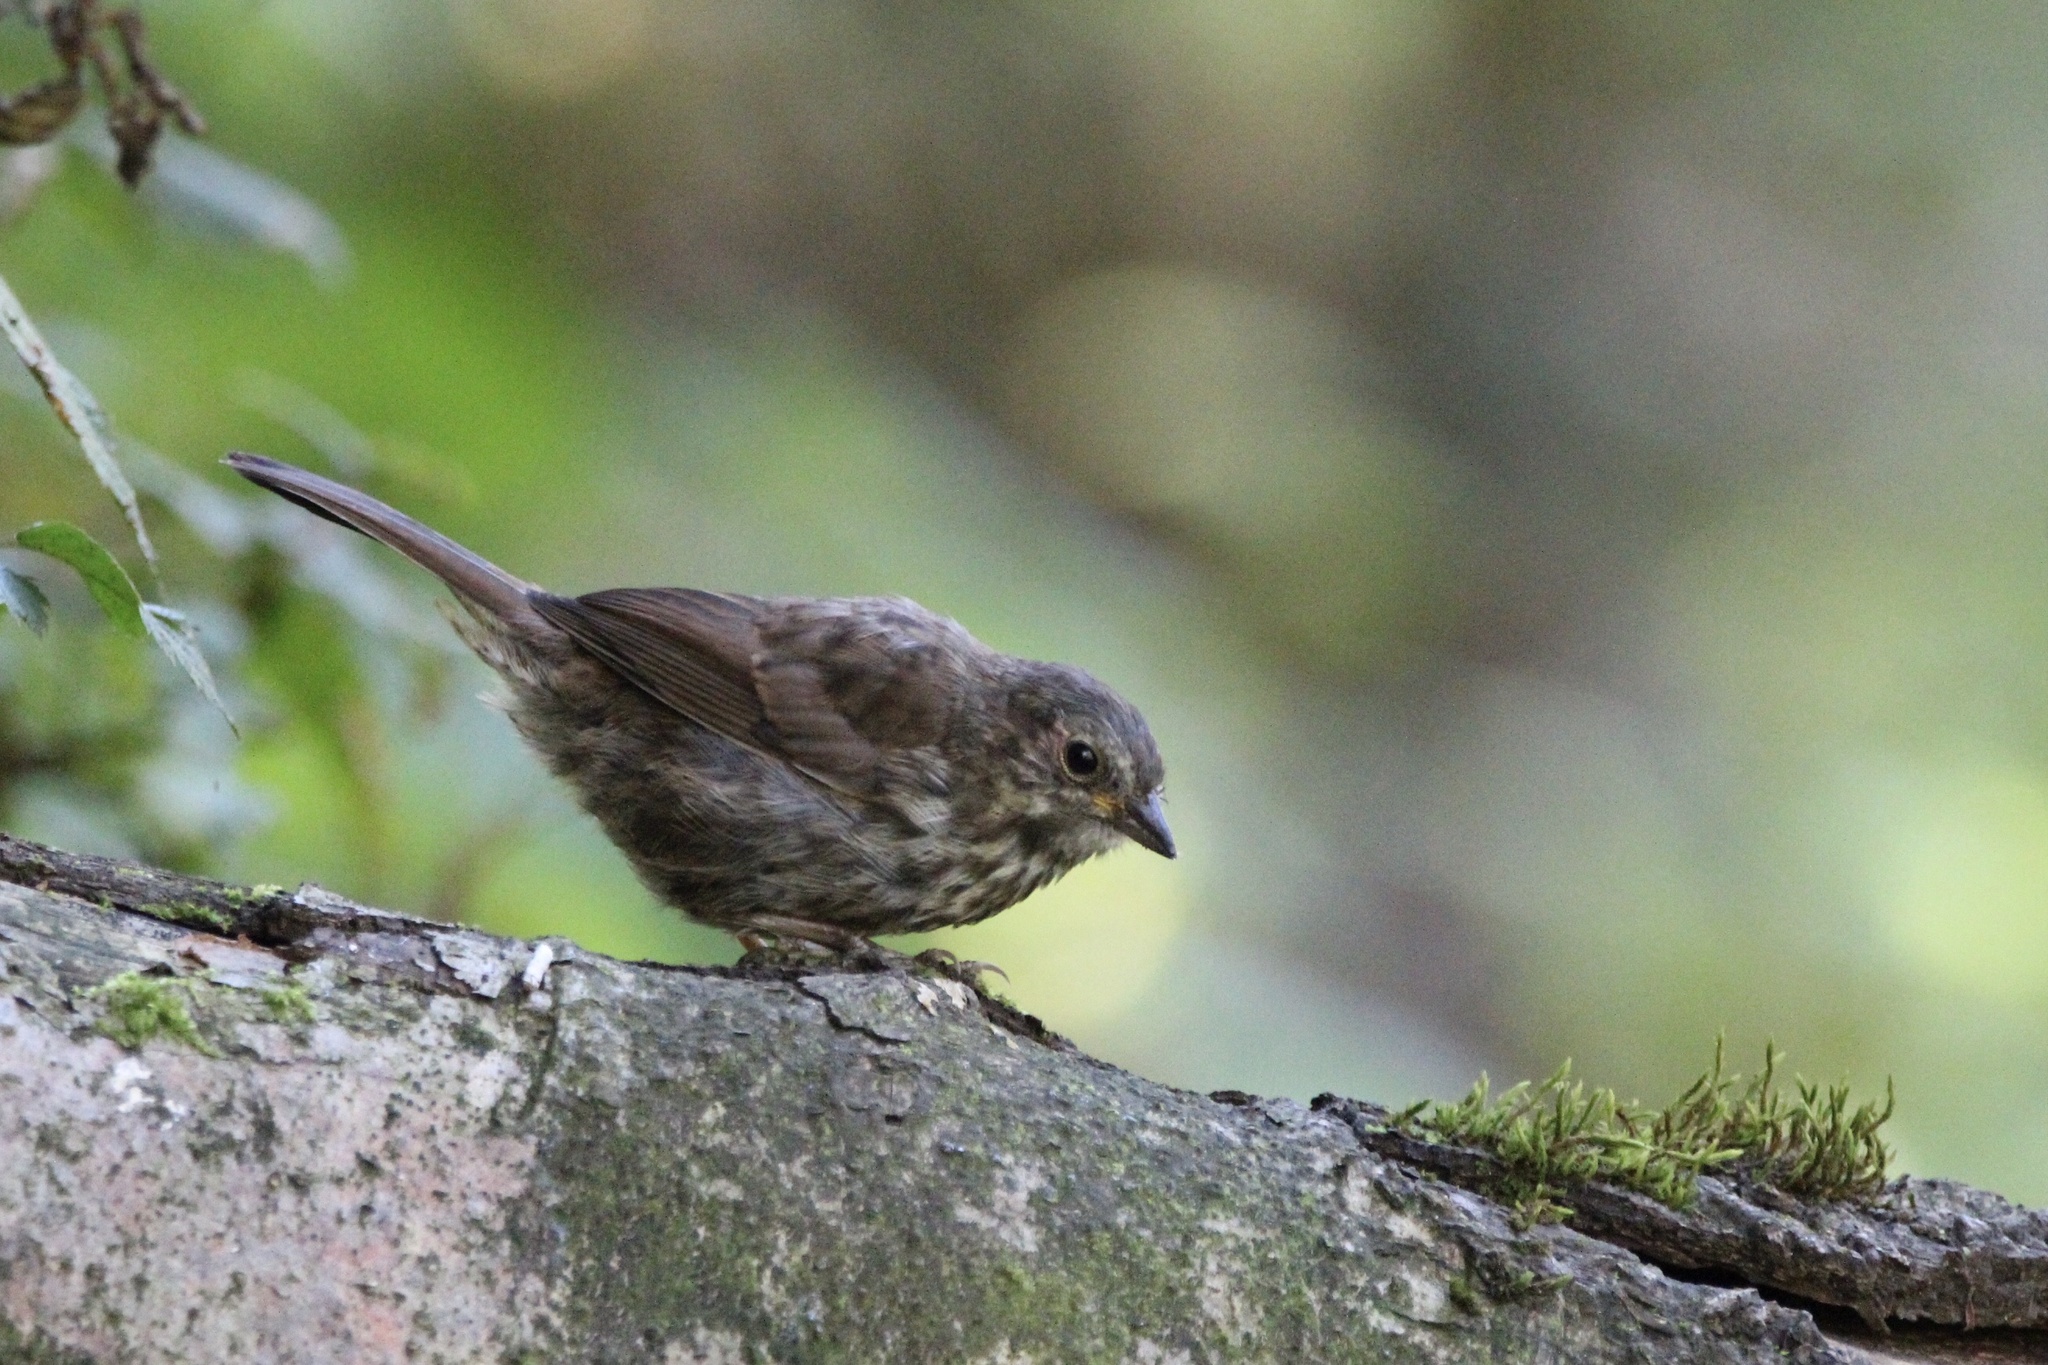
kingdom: Animalia
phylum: Chordata
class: Aves
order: Passeriformes
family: Passerellidae
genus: Melospiza
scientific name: Melospiza melodia
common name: Song sparrow
